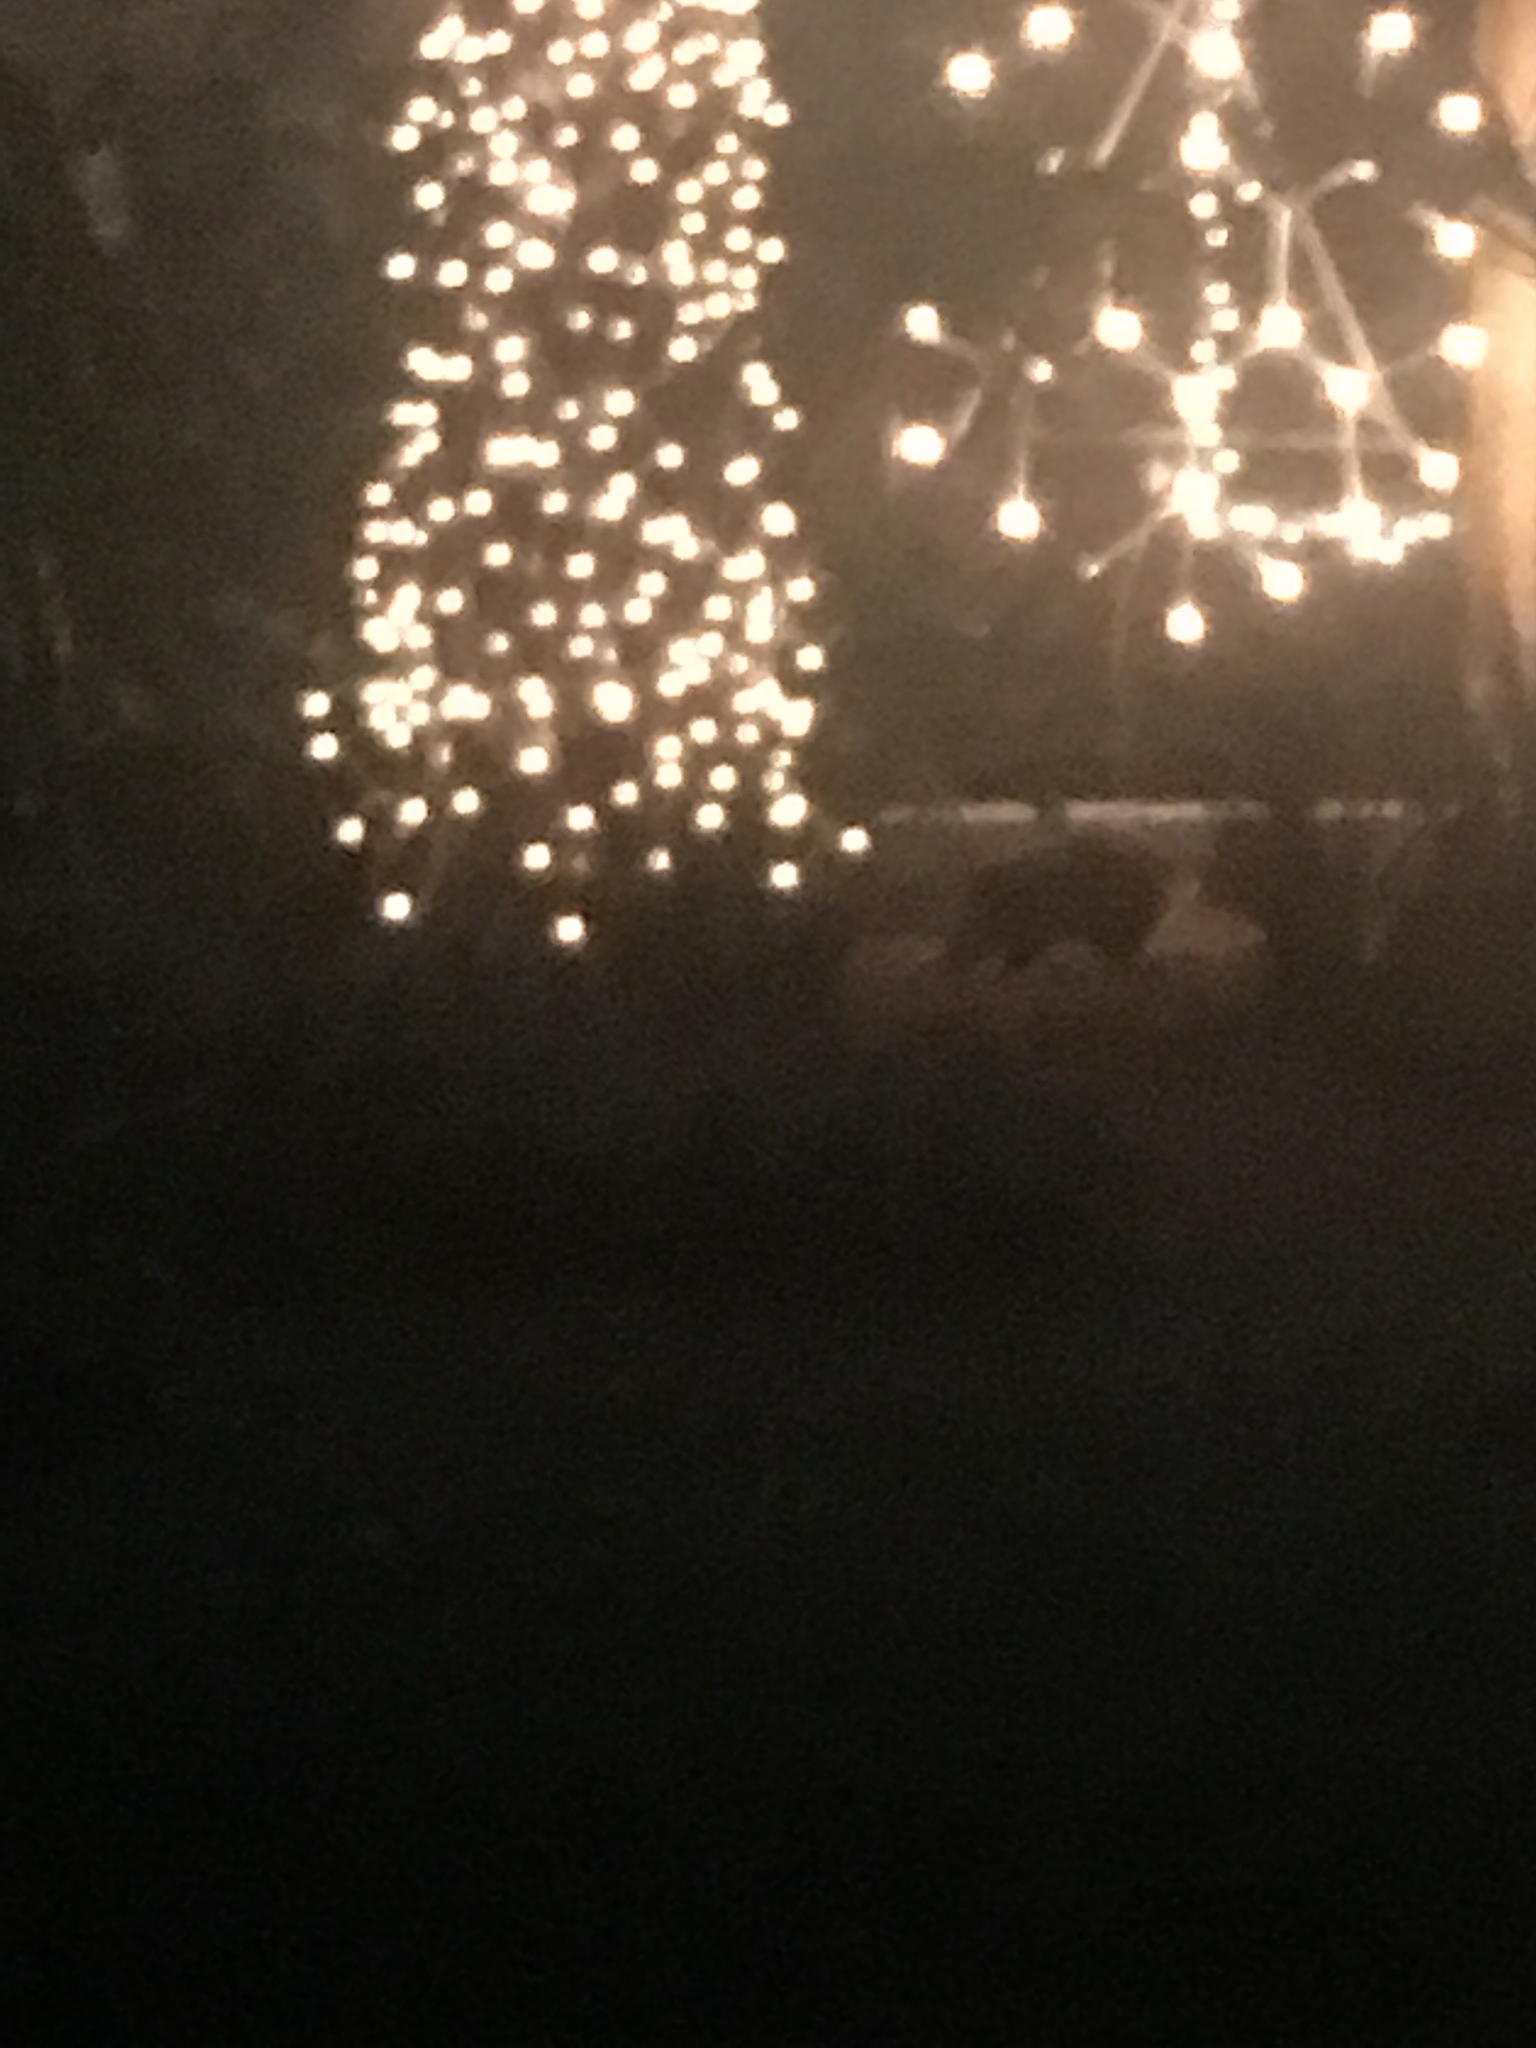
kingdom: Animalia
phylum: Chordata
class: Mammalia
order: Didelphimorphia
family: Didelphidae
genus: Didelphis
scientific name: Didelphis virginiana
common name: Virginia opossum
